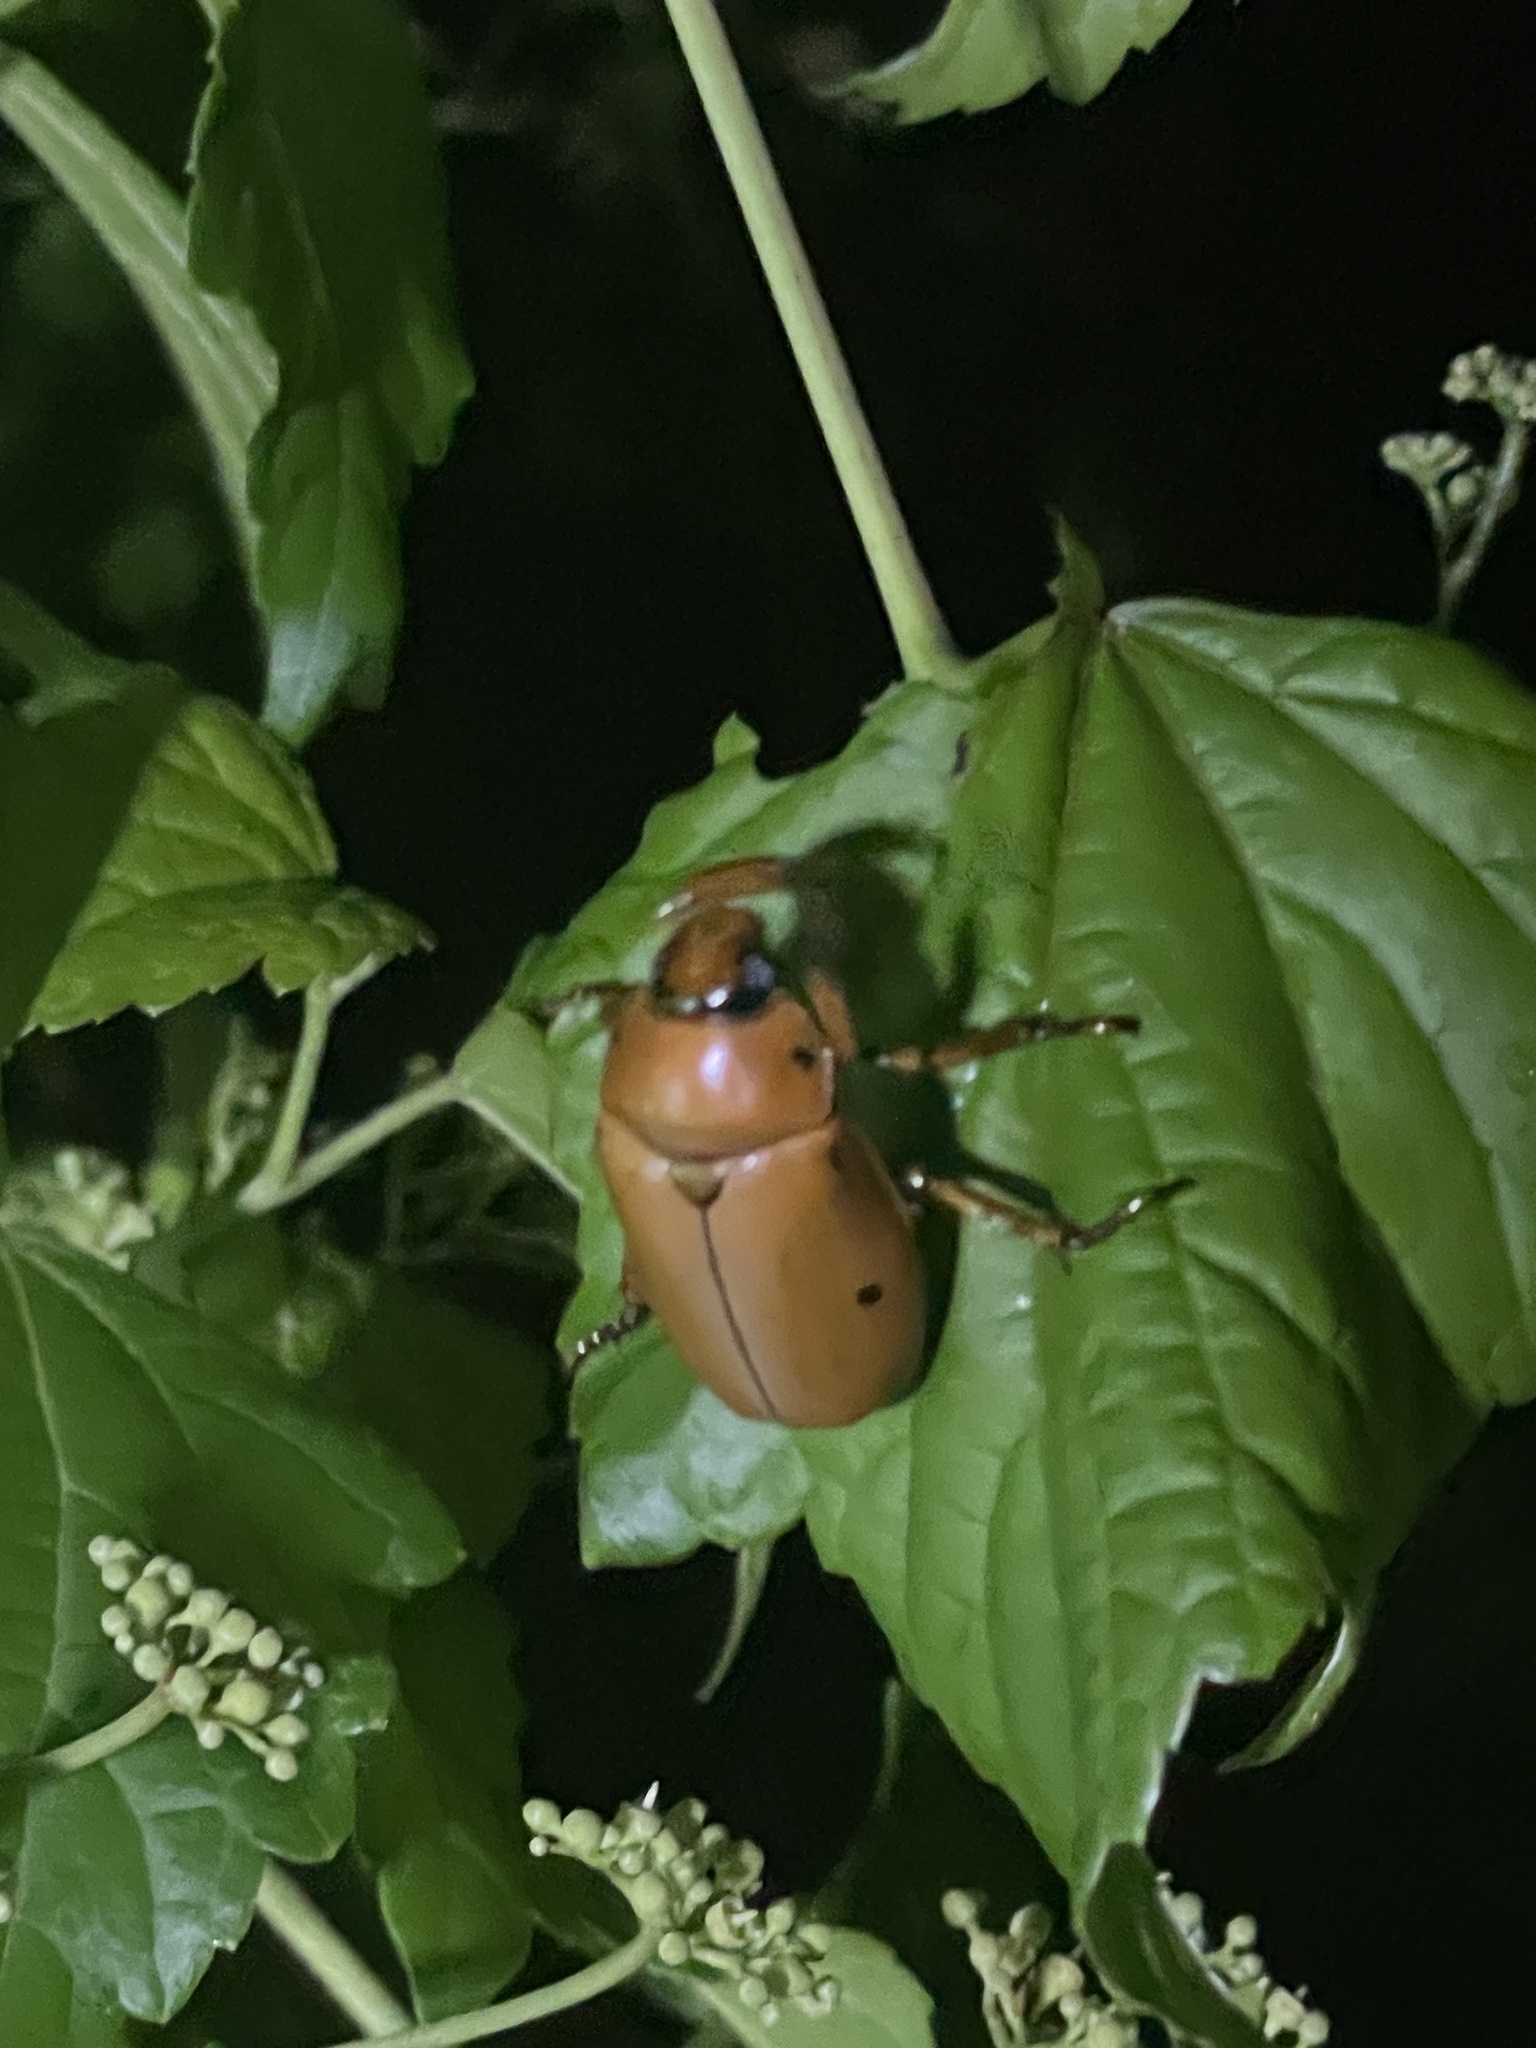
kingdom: Animalia
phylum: Arthropoda
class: Insecta
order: Coleoptera
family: Scarabaeidae
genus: Pelidnota
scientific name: Pelidnota punctata
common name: Grapevine beetle
